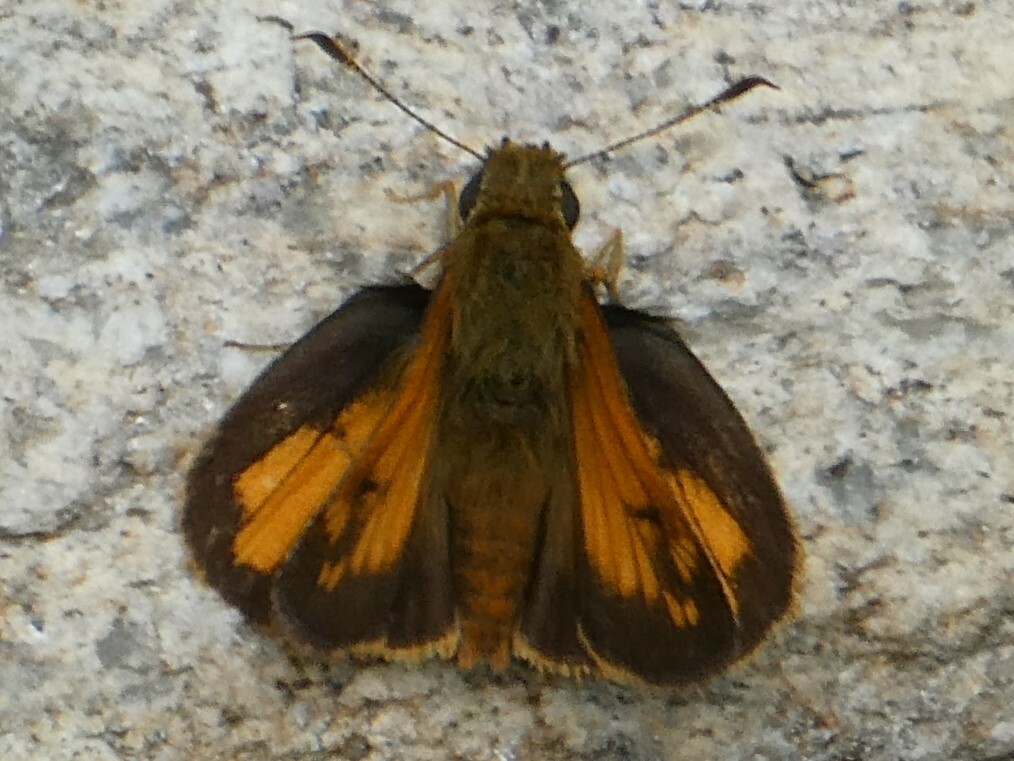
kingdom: Animalia
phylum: Arthropoda
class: Insecta
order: Lepidoptera
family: Hesperiidae
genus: Lon
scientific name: Lon hobomok
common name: Hobomok skipper
